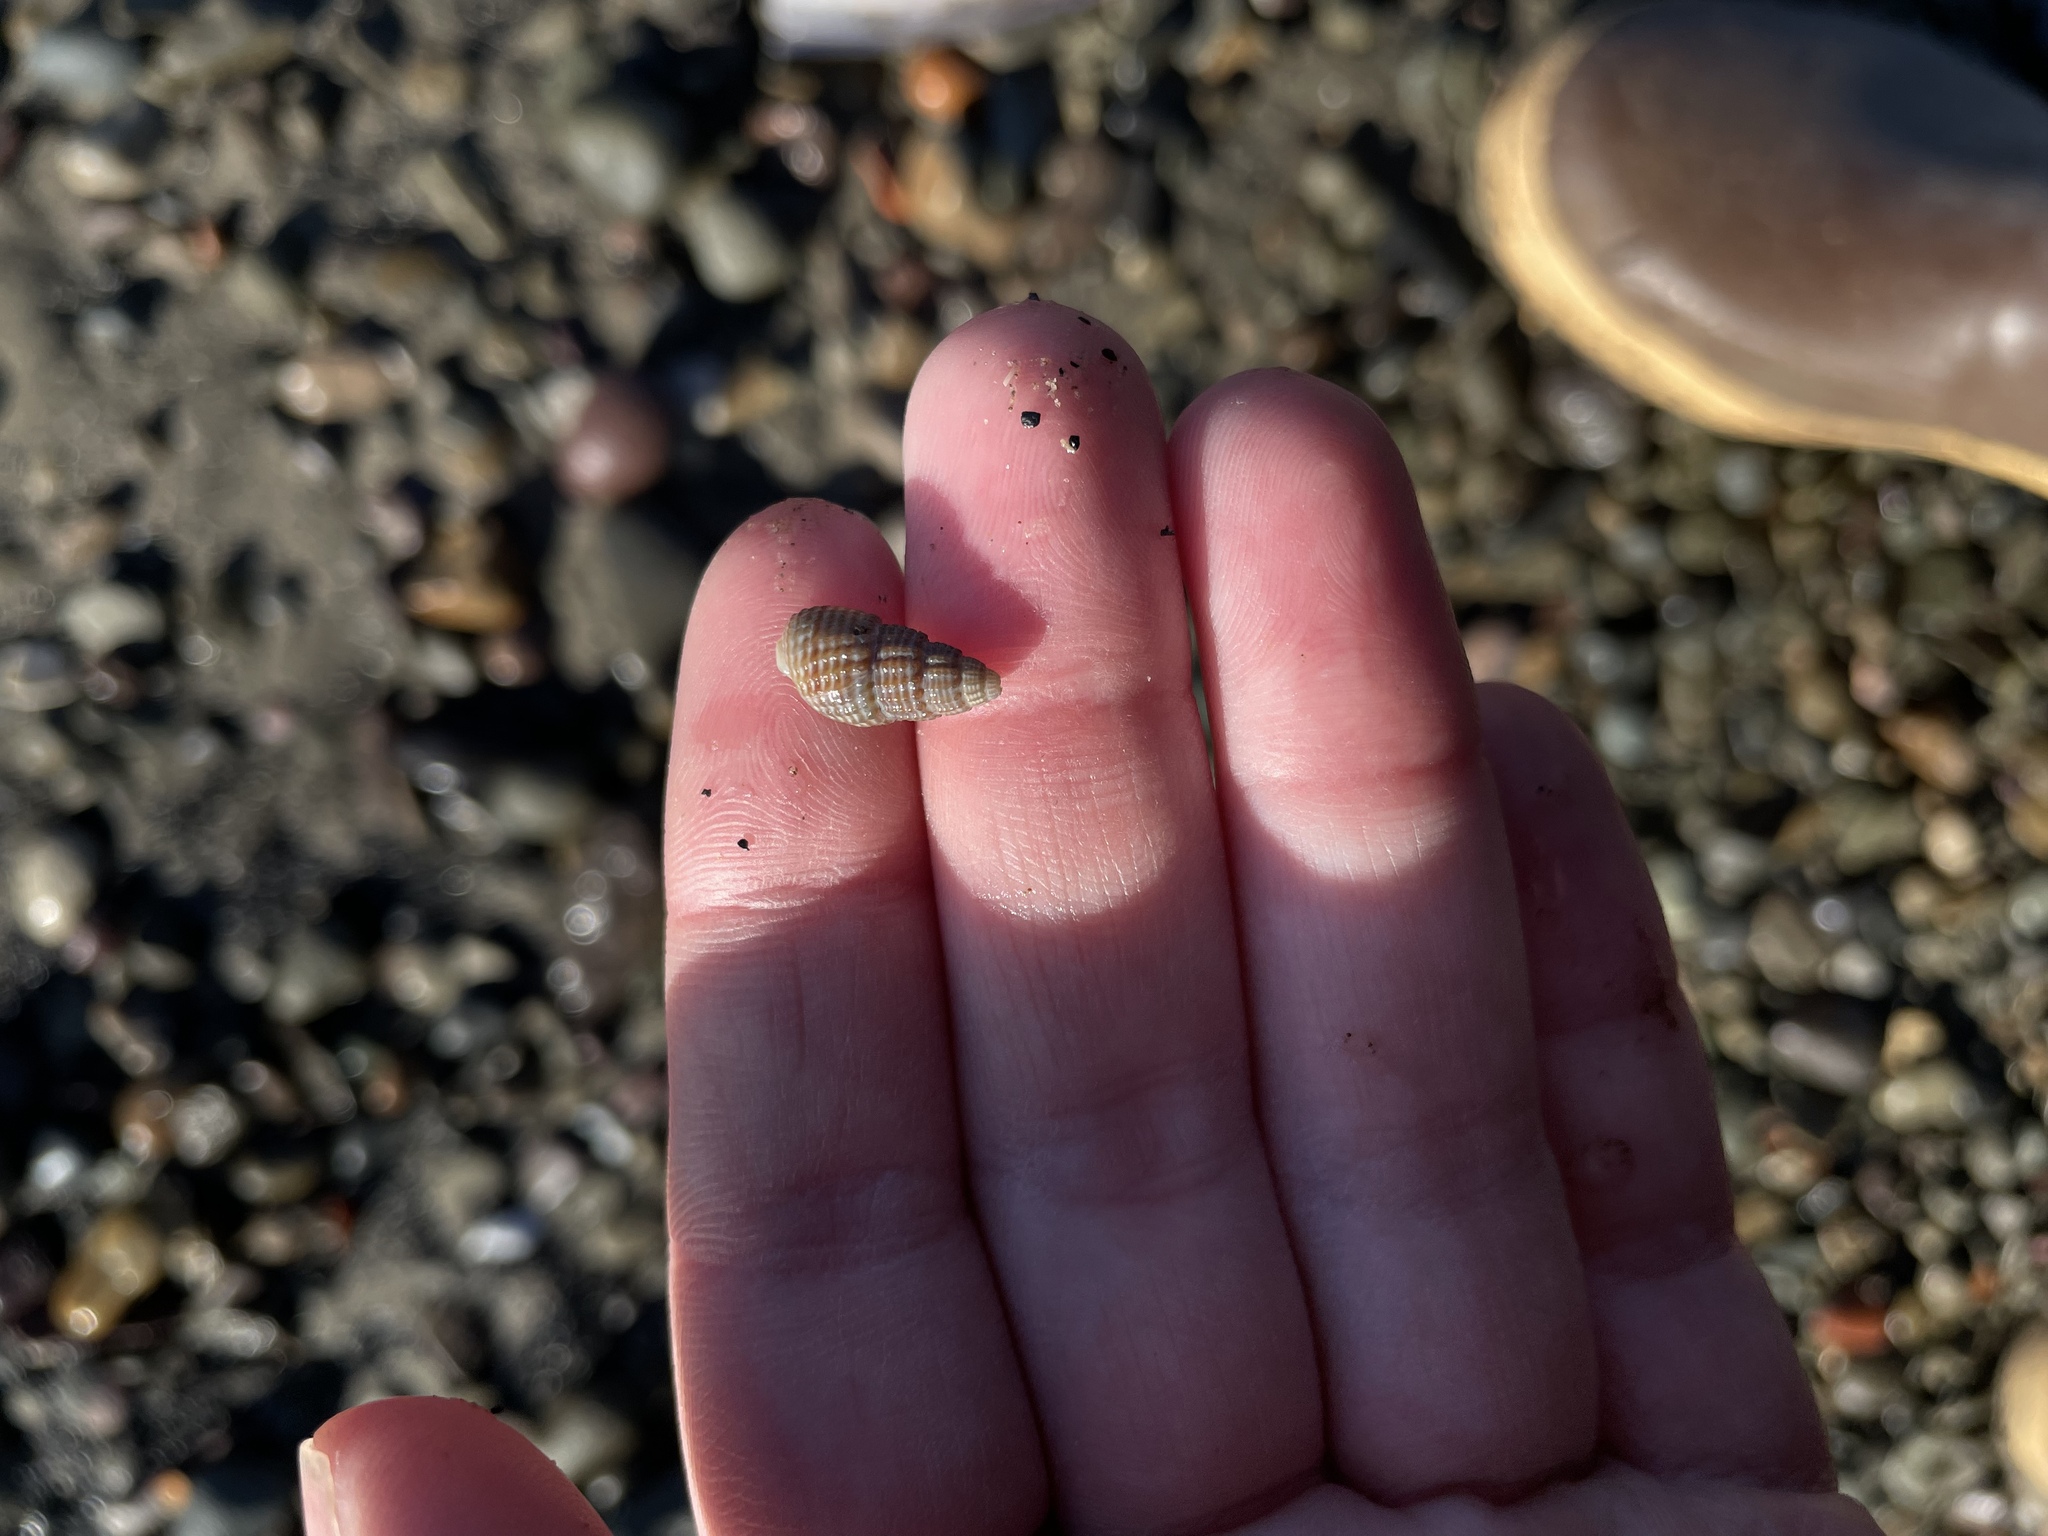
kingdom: Animalia
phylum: Mollusca
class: Gastropoda
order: Neogastropoda
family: Nassariidae
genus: Ilyanassa
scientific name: Ilyanassa trivittata
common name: Three-line mudsnail
